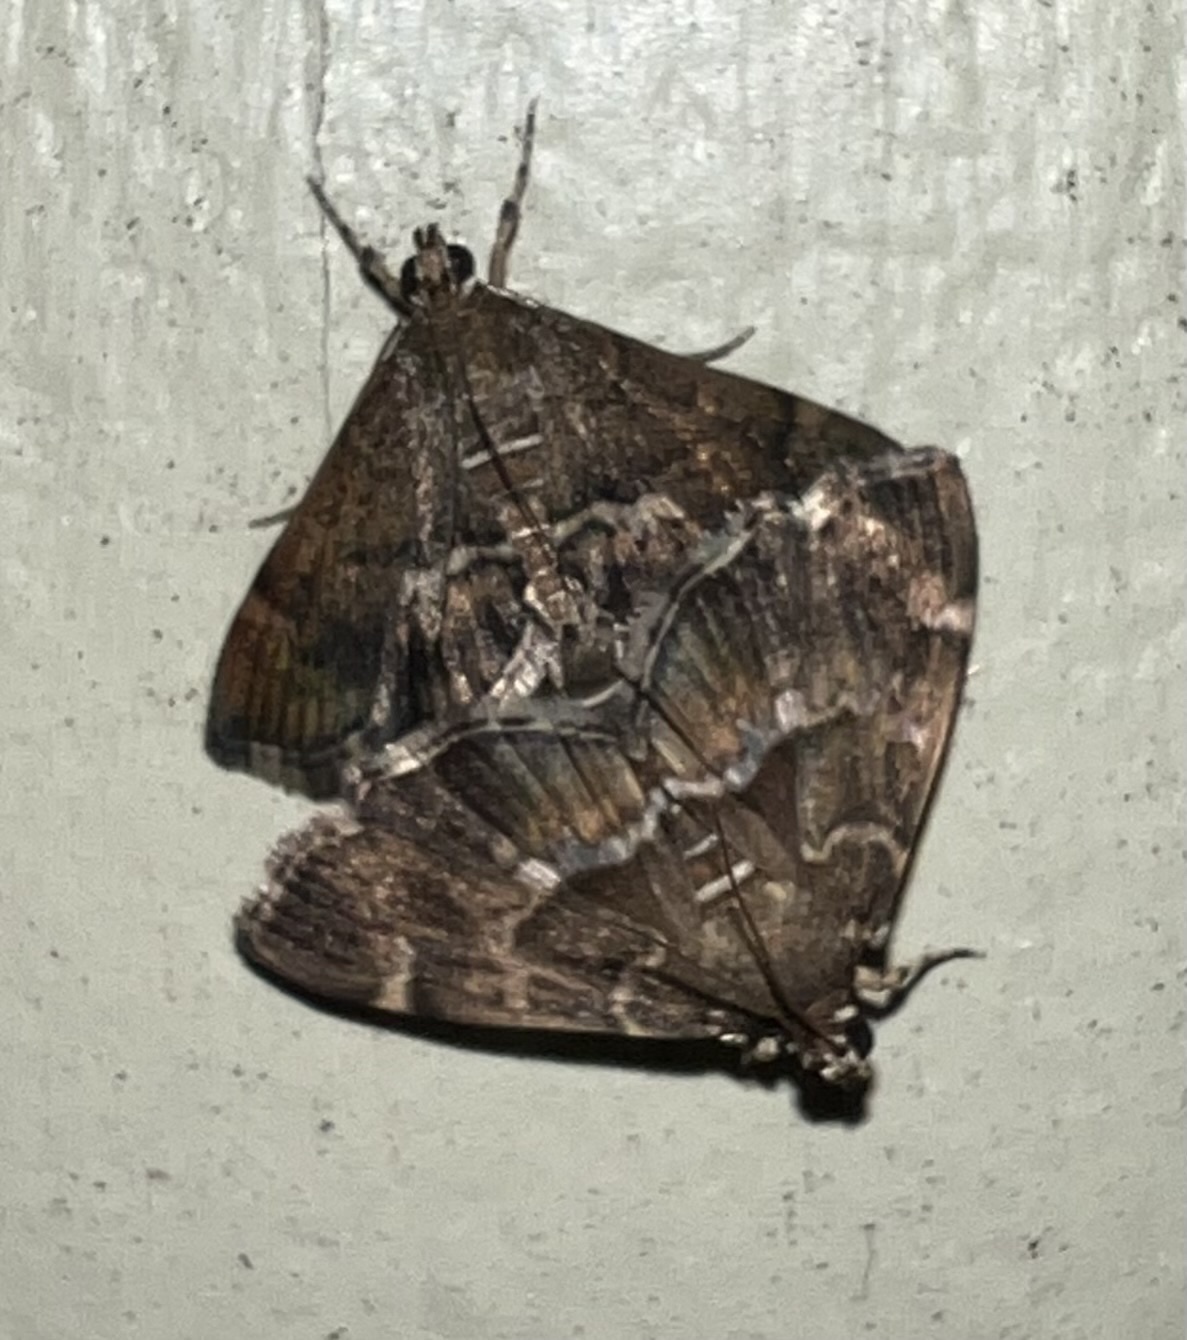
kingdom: Animalia
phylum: Arthropoda
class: Insecta
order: Lepidoptera
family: Crambidae
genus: Hymenia
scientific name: Hymenia perspectalis
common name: Spotted beet webworm
